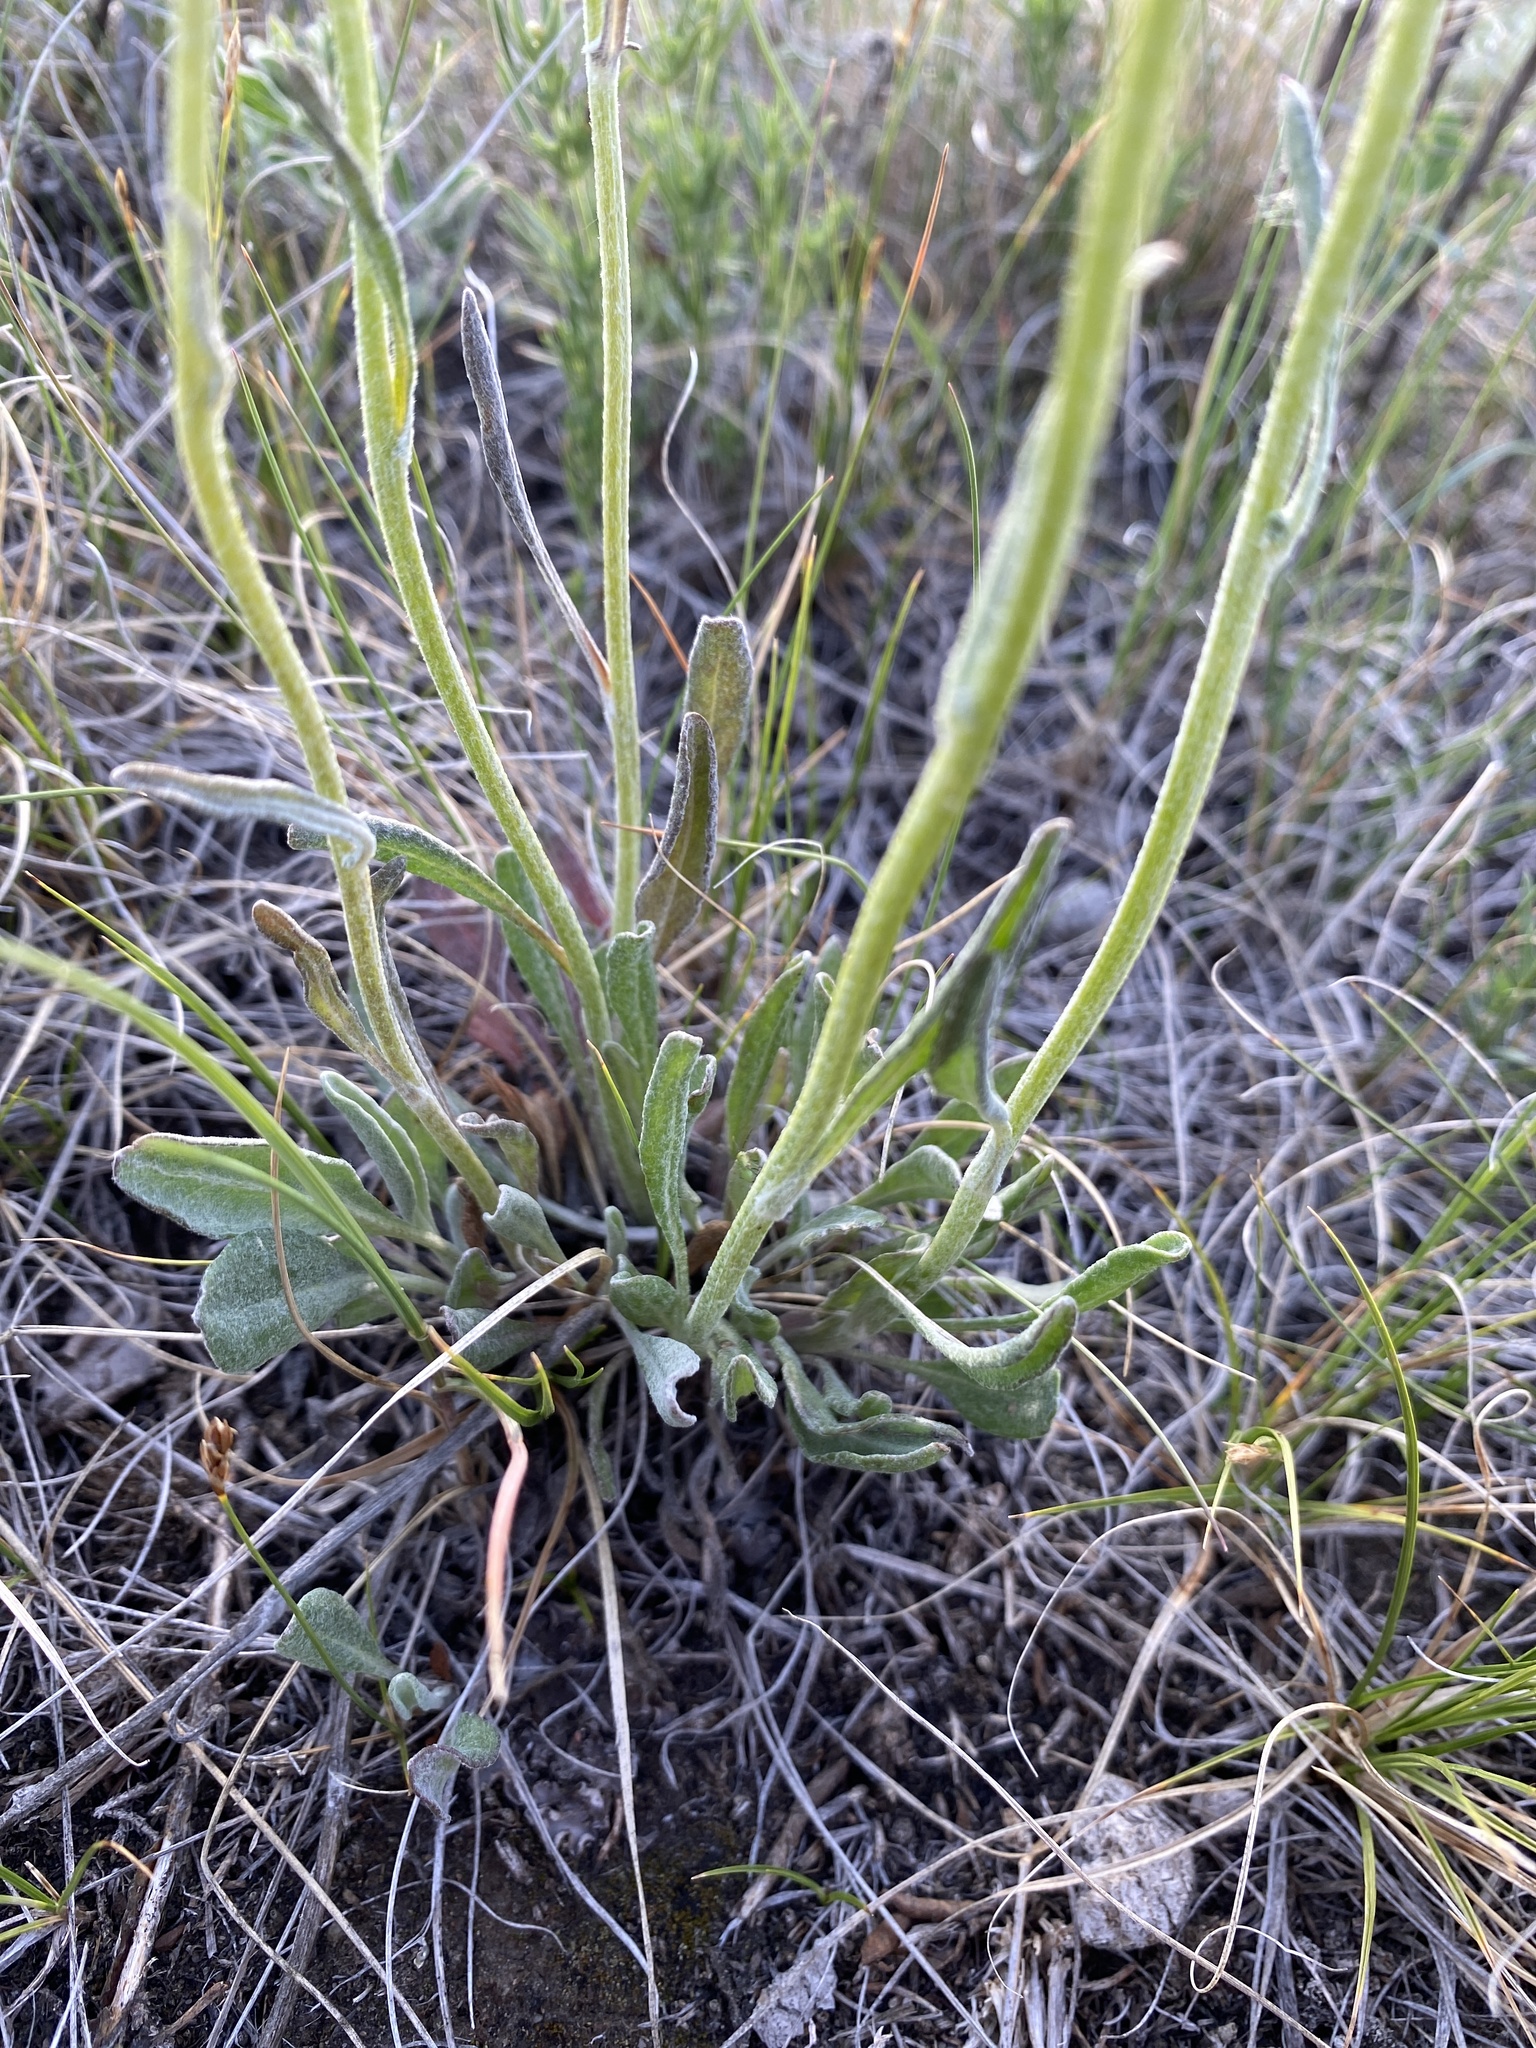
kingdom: Plantae
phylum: Tracheophyta
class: Magnoliopsida
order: Asterales
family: Asteraceae
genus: Packera
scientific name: Packera cana
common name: Woolly groundsel
